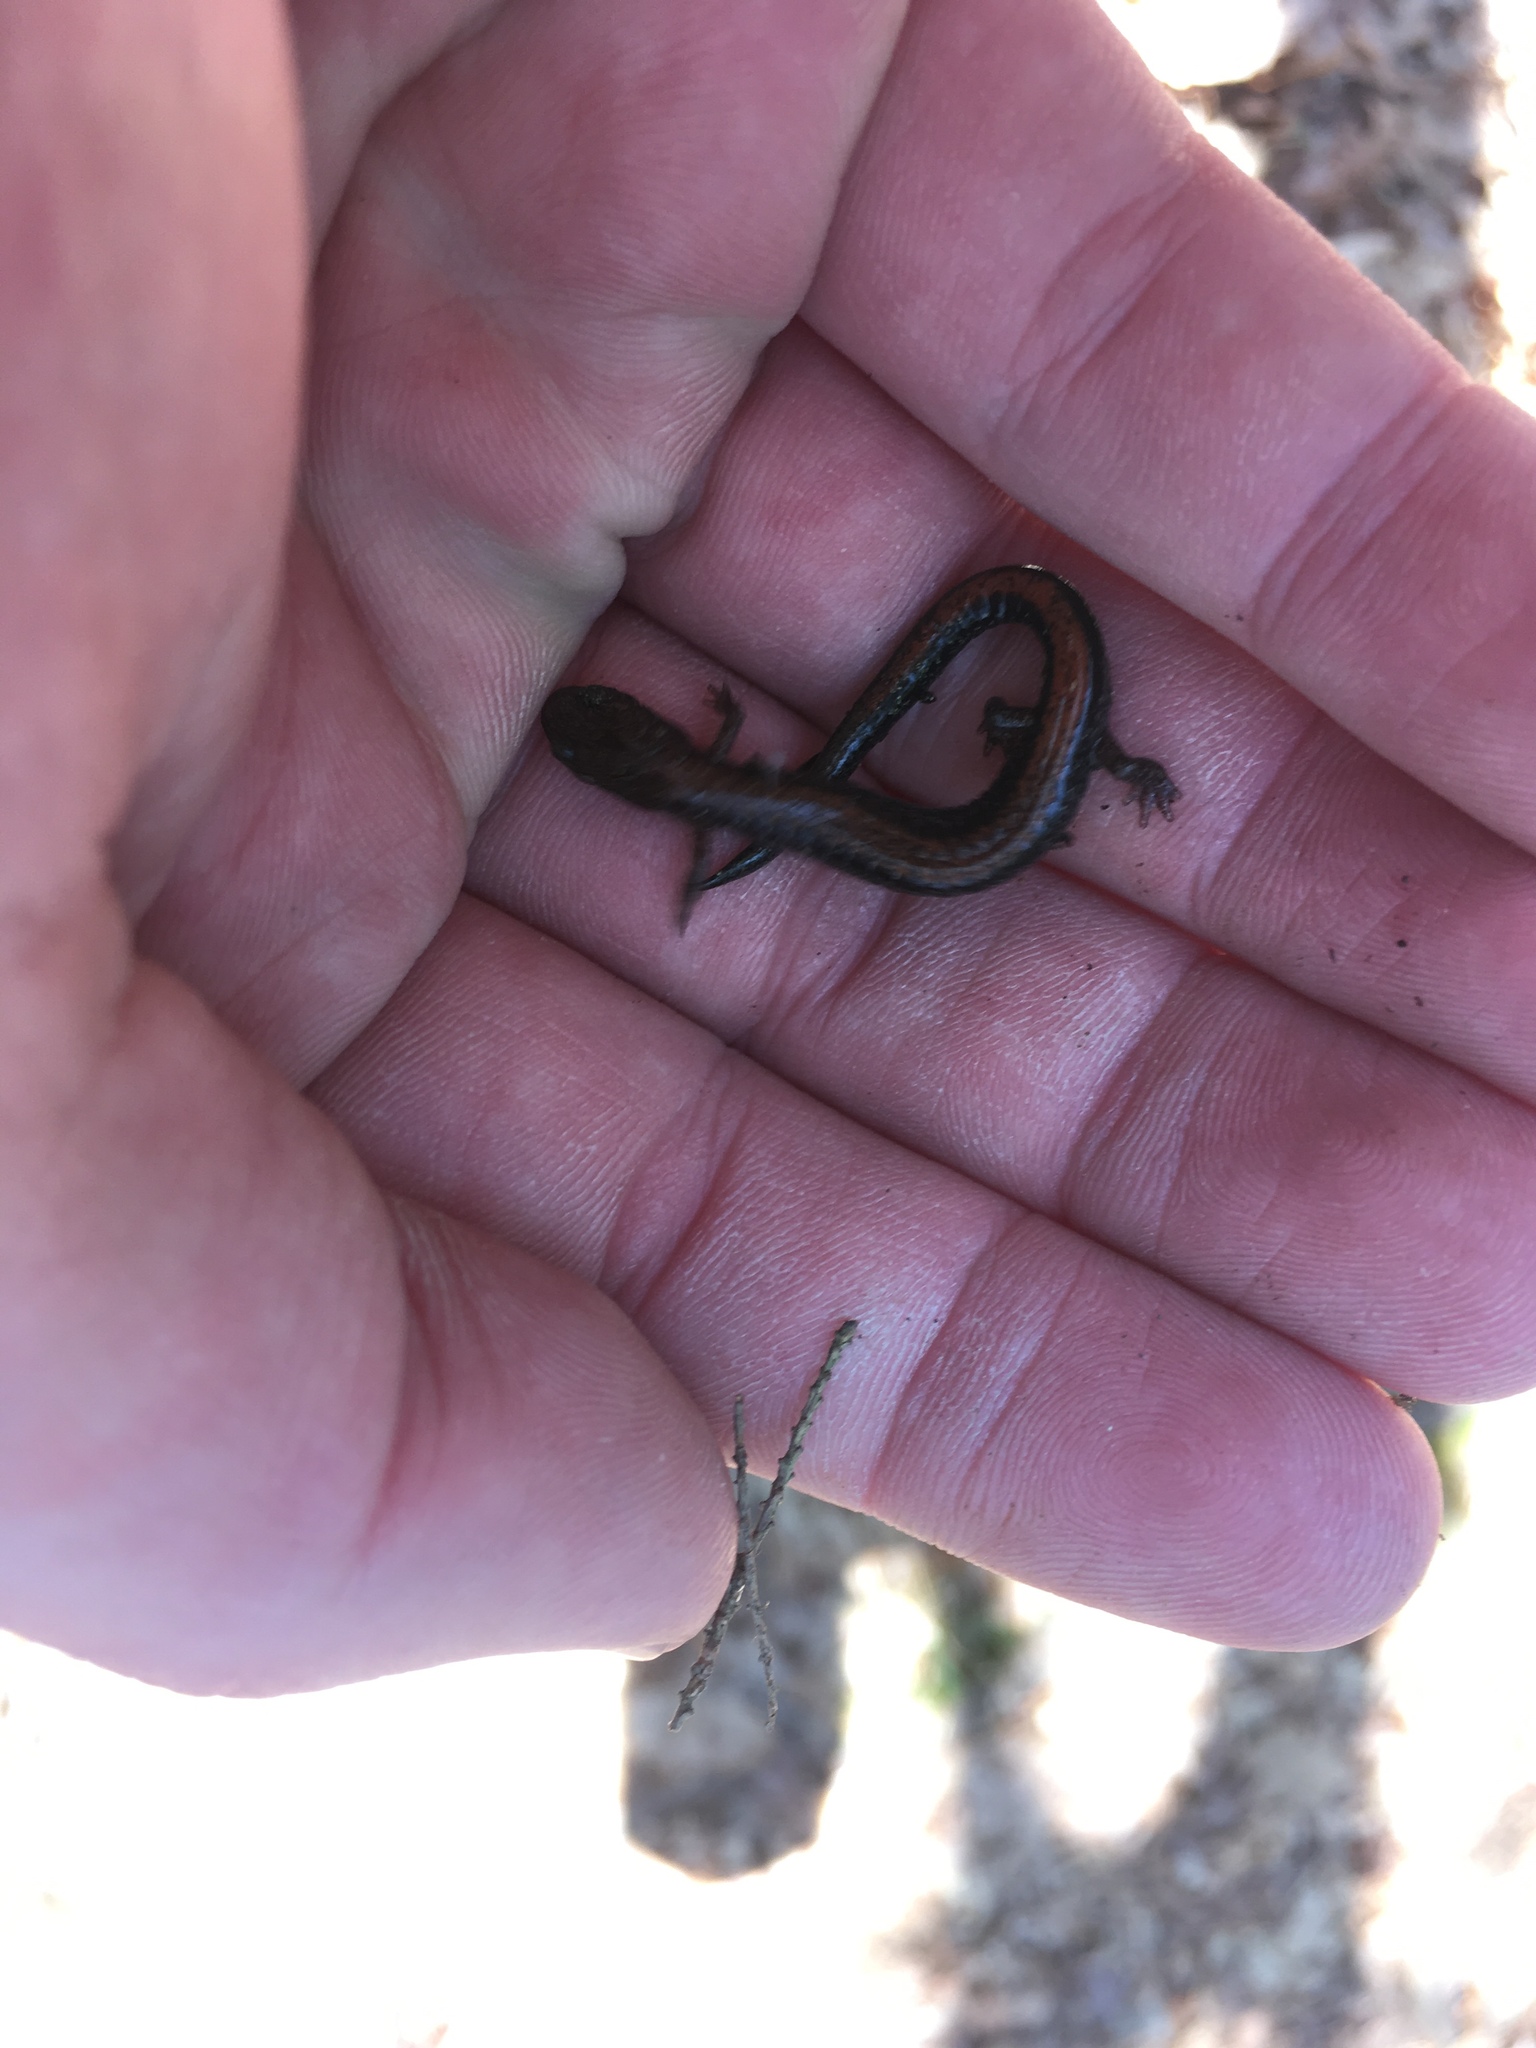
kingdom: Animalia
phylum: Chordata
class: Amphibia
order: Caudata
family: Plethodontidae
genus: Plethodon
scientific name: Plethodon cinereus
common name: Redback salamander
